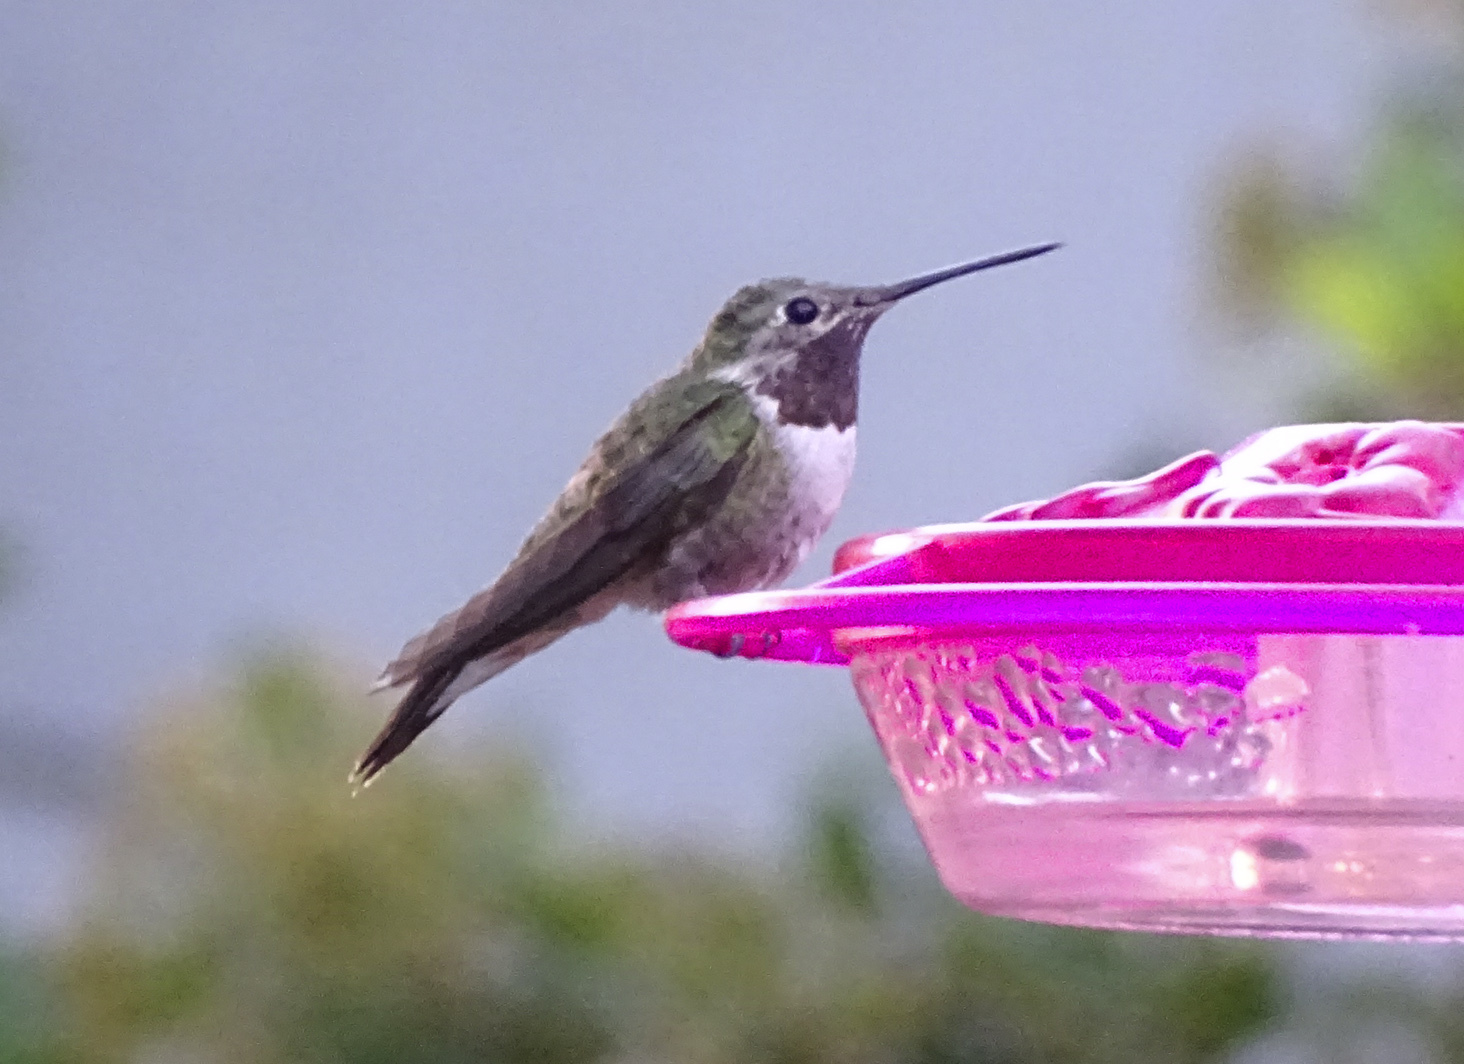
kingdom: Animalia
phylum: Chordata
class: Aves
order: Apodiformes
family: Trochilidae
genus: Selasphorus
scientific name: Selasphorus platycercus
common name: Broad-tailed hummingbird
